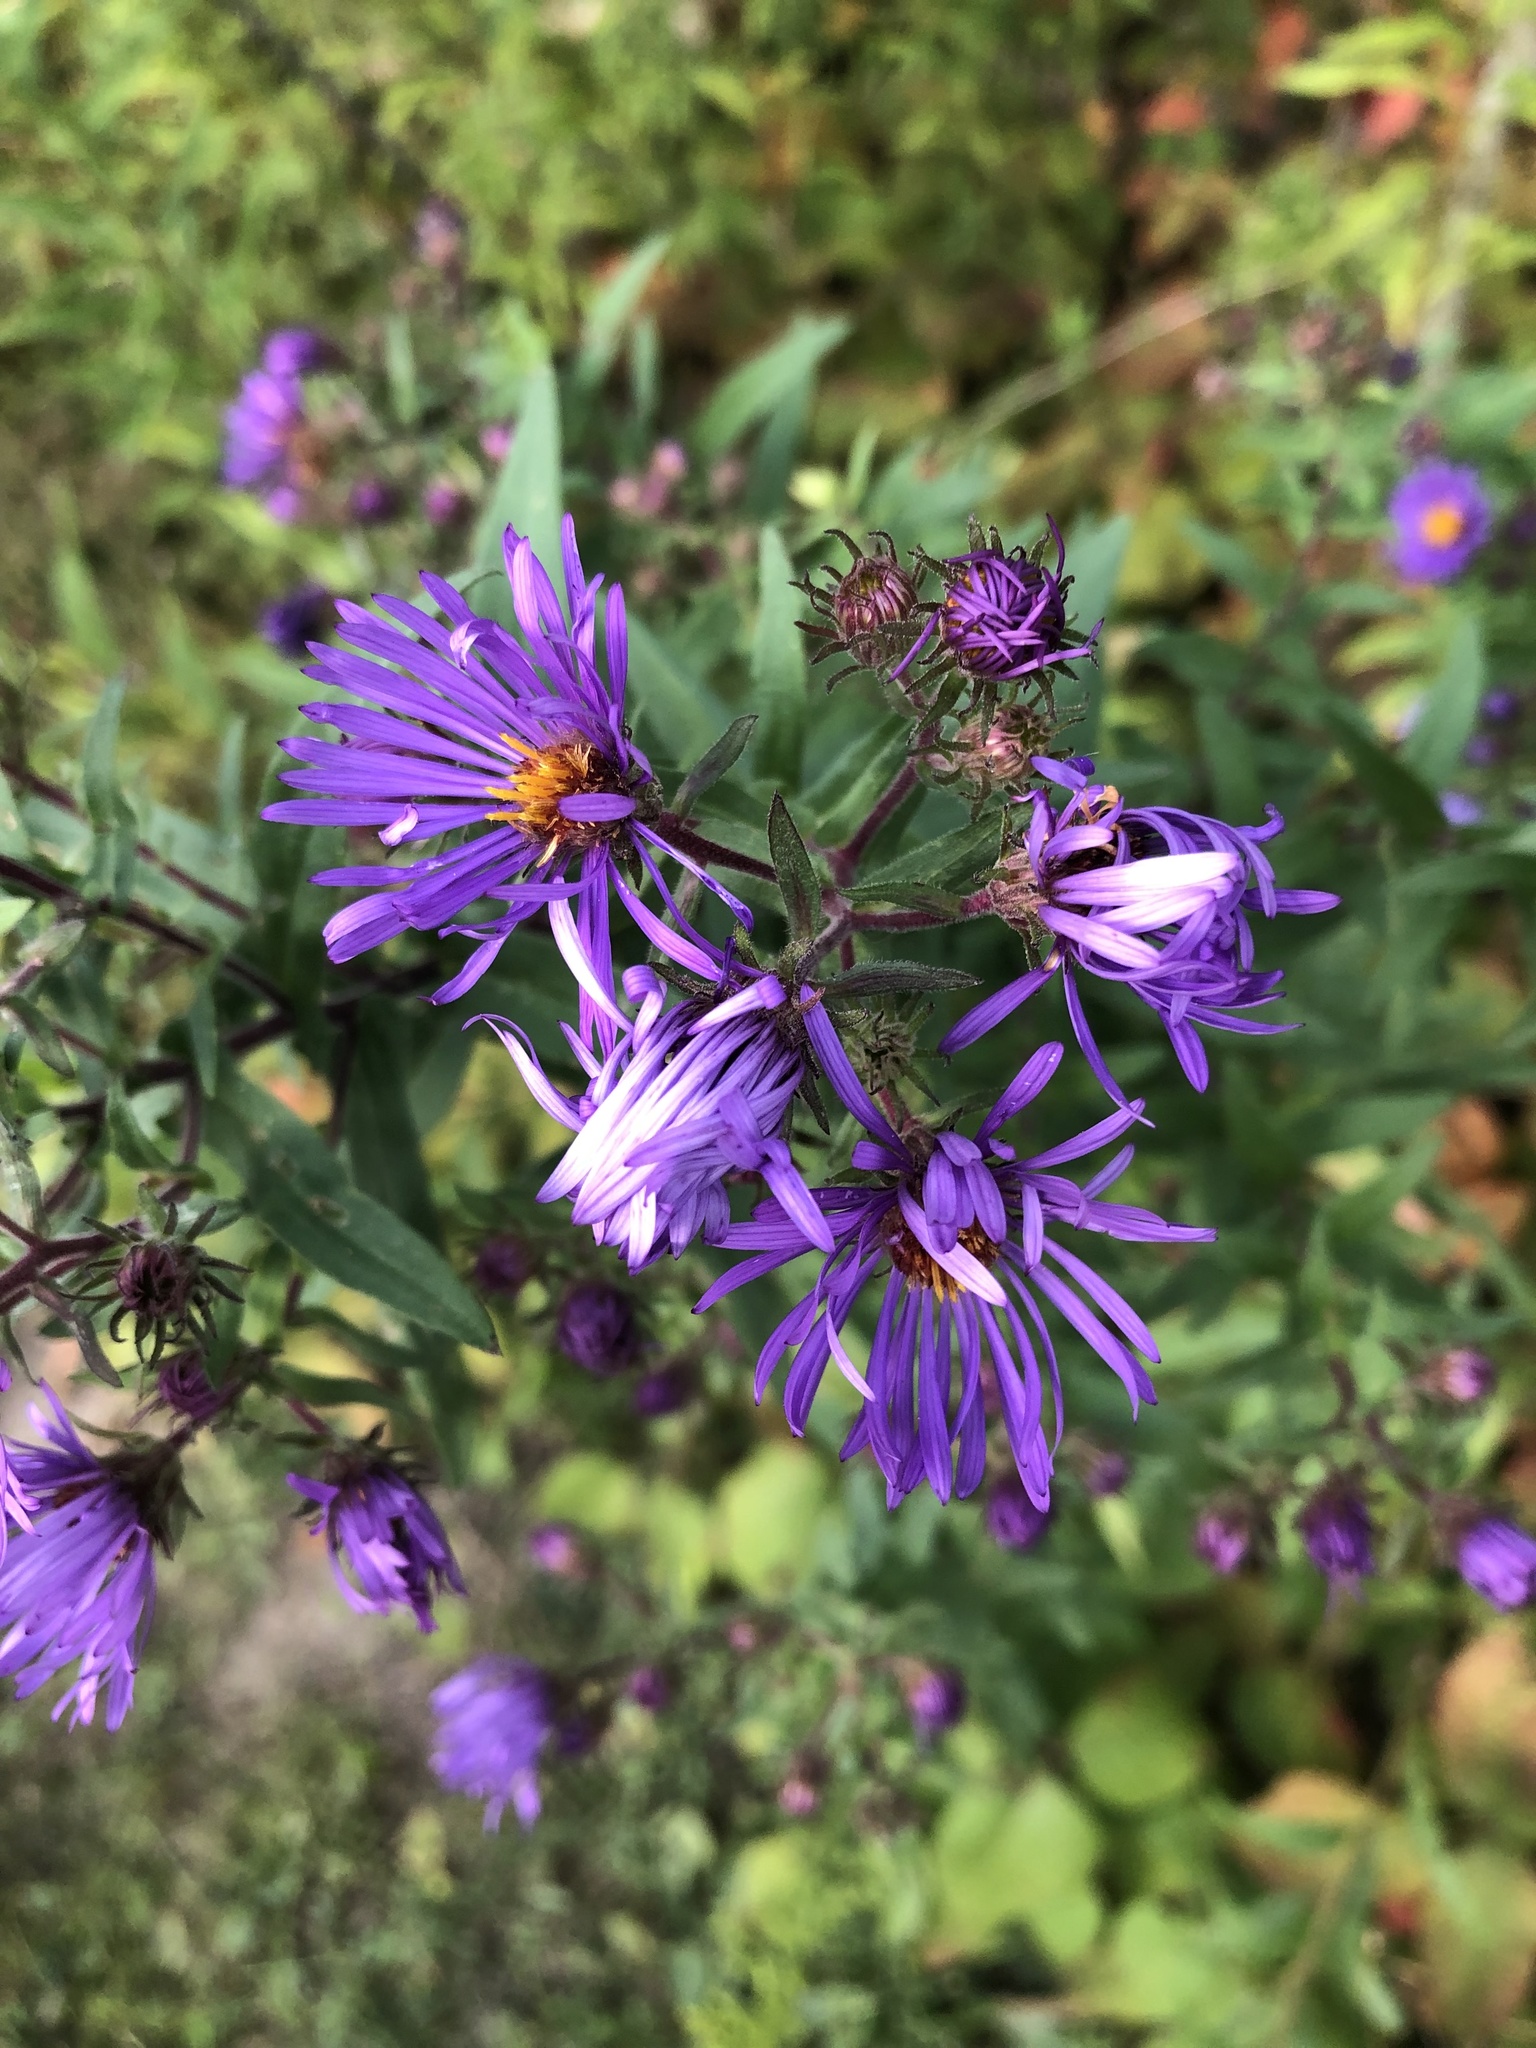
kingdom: Plantae
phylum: Tracheophyta
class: Magnoliopsida
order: Asterales
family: Asteraceae
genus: Symphyotrichum
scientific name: Symphyotrichum novae-angliae
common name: Michaelmas daisy
